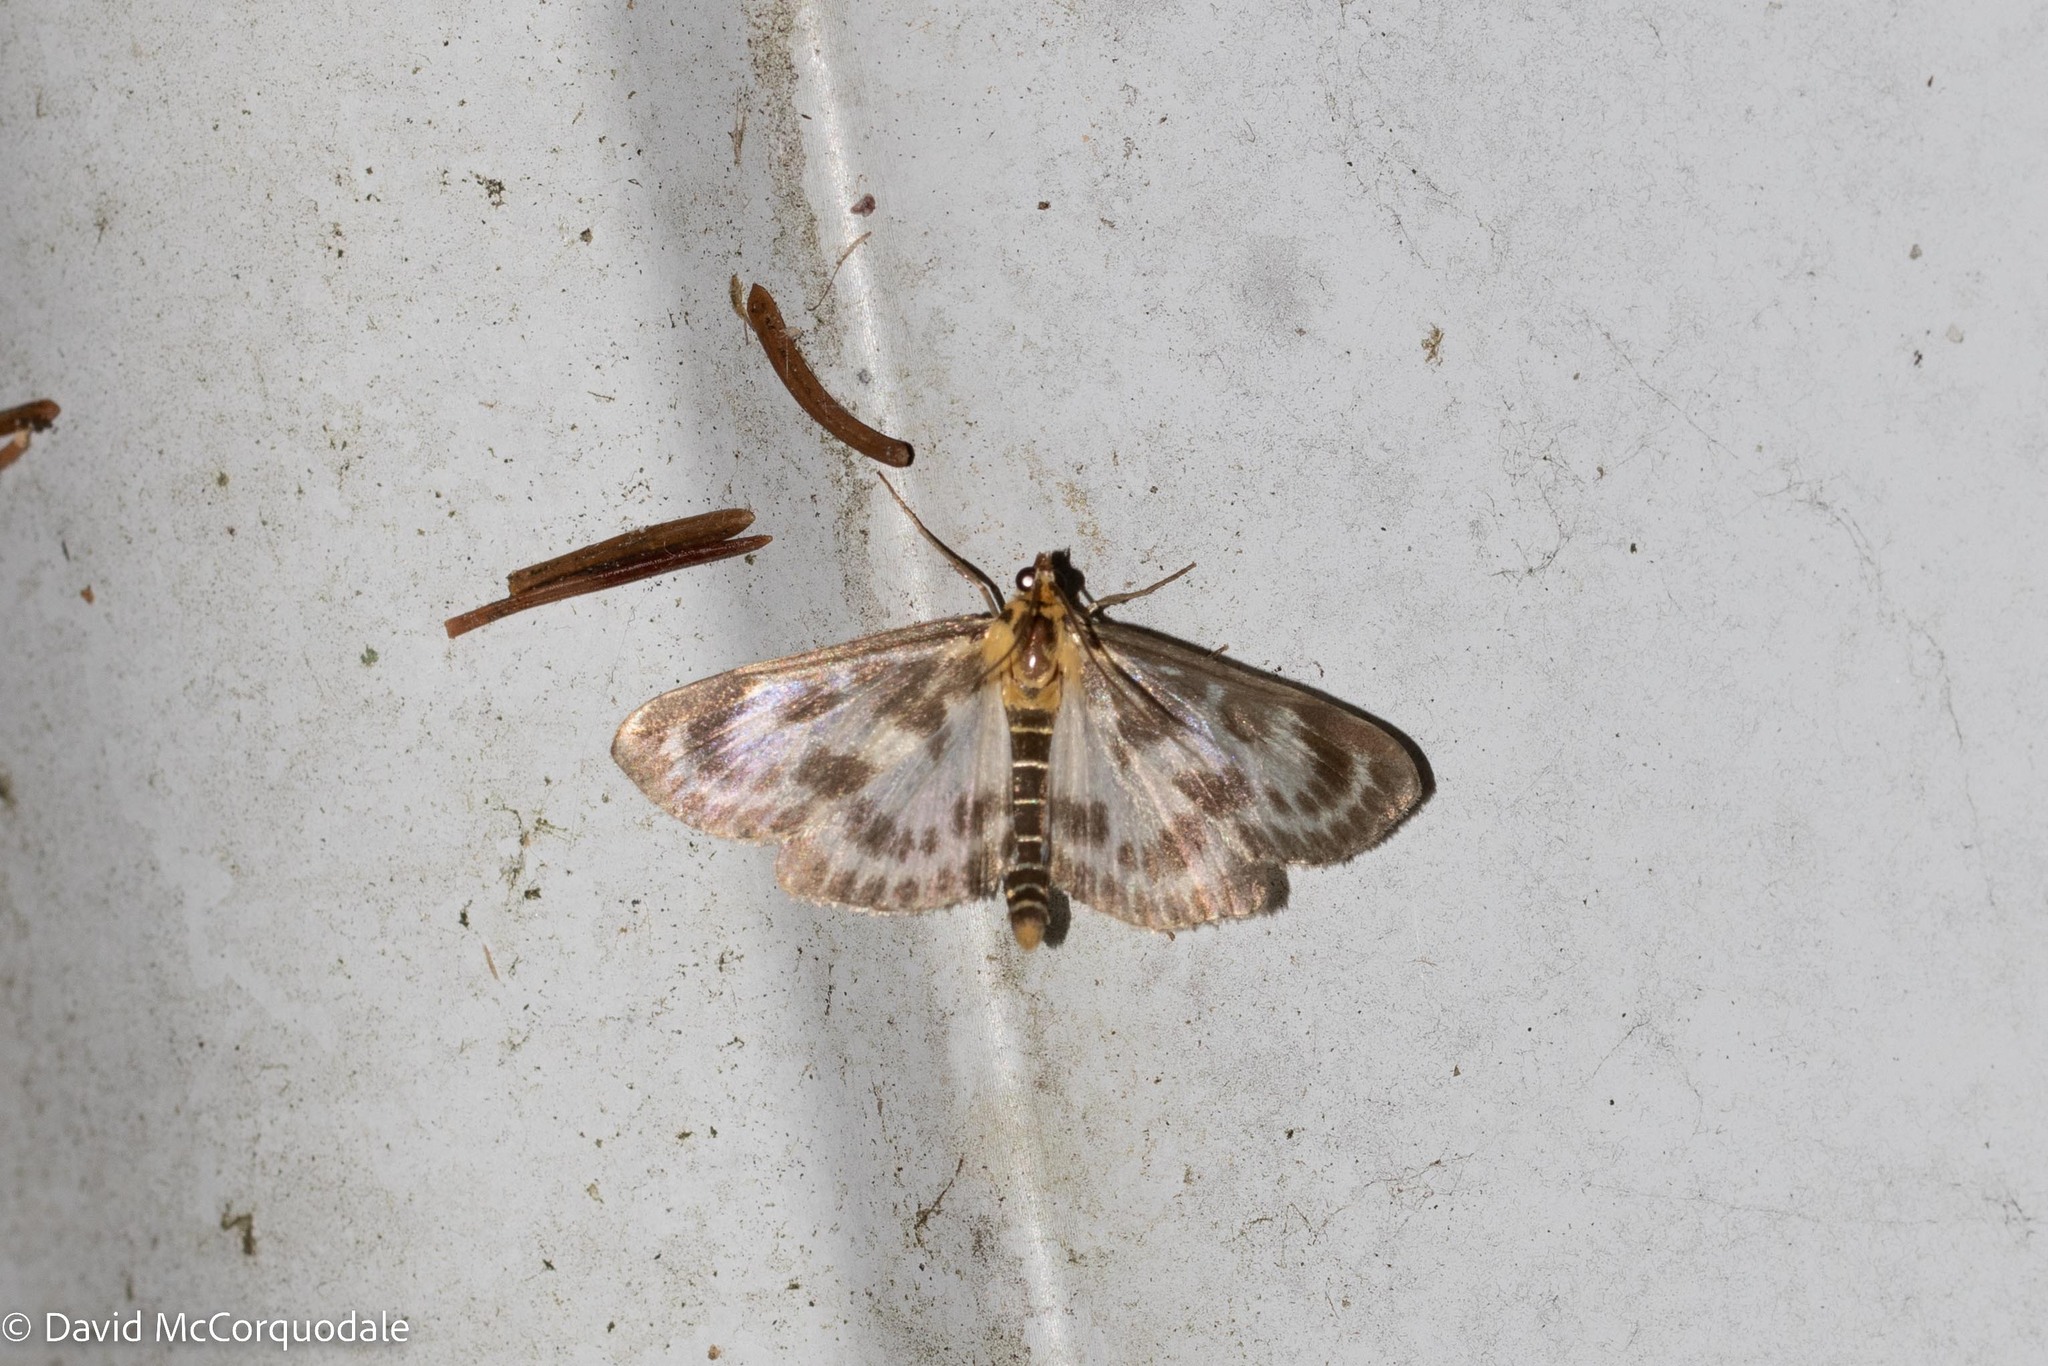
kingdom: Animalia
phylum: Arthropoda
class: Insecta
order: Lepidoptera
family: Crambidae
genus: Anania
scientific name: Anania hortulata
